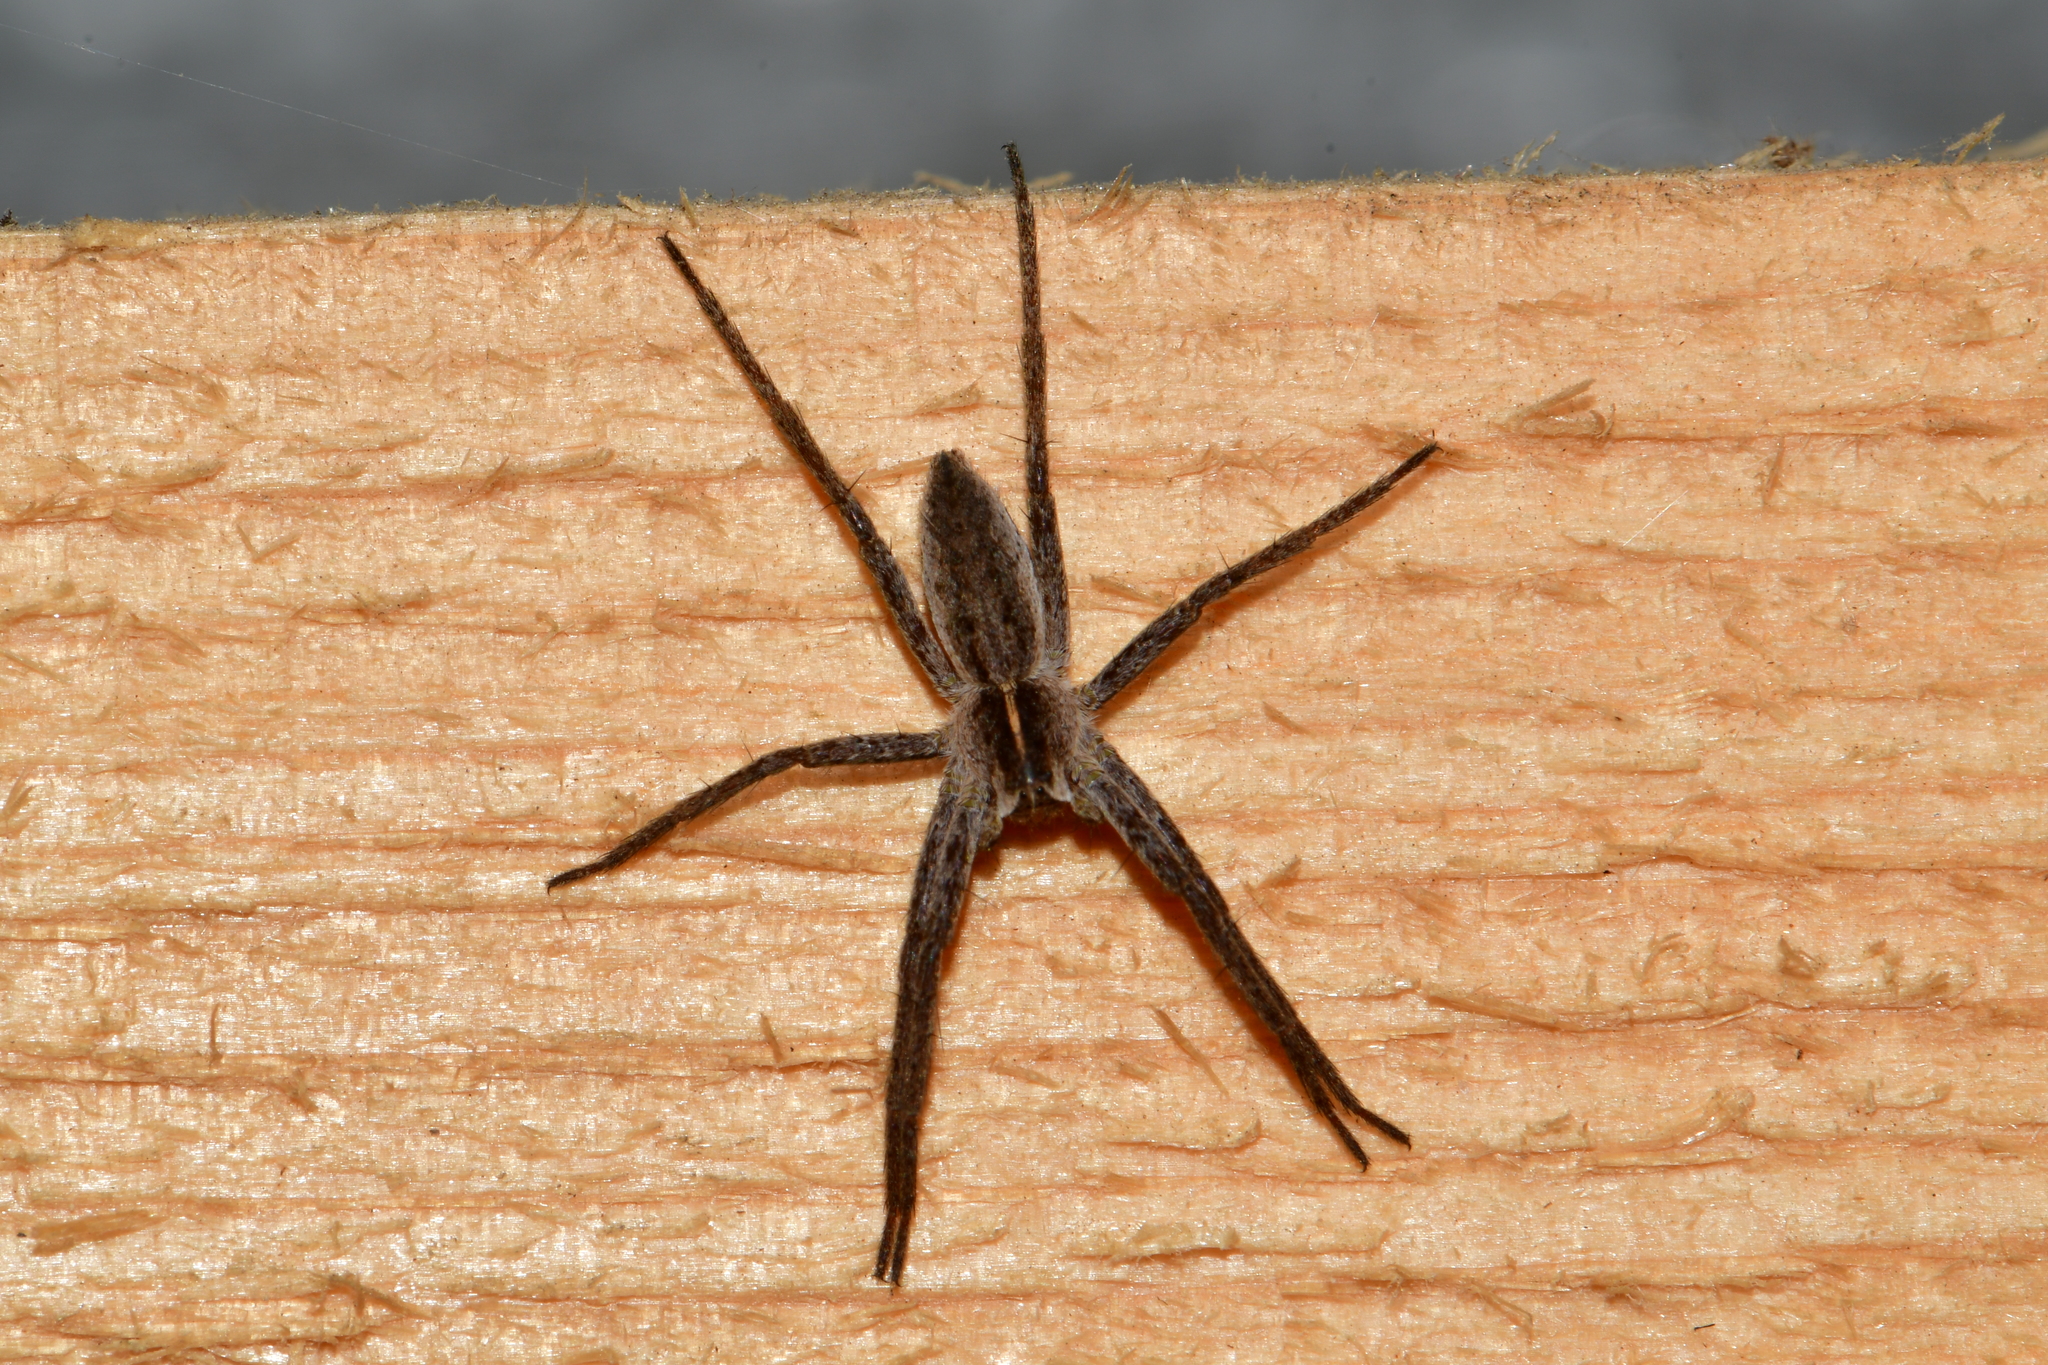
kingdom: Animalia
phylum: Arthropoda
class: Arachnida
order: Araneae
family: Pisauridae
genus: Pisaura
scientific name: Pisaura mirabilis
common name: Tent spider
